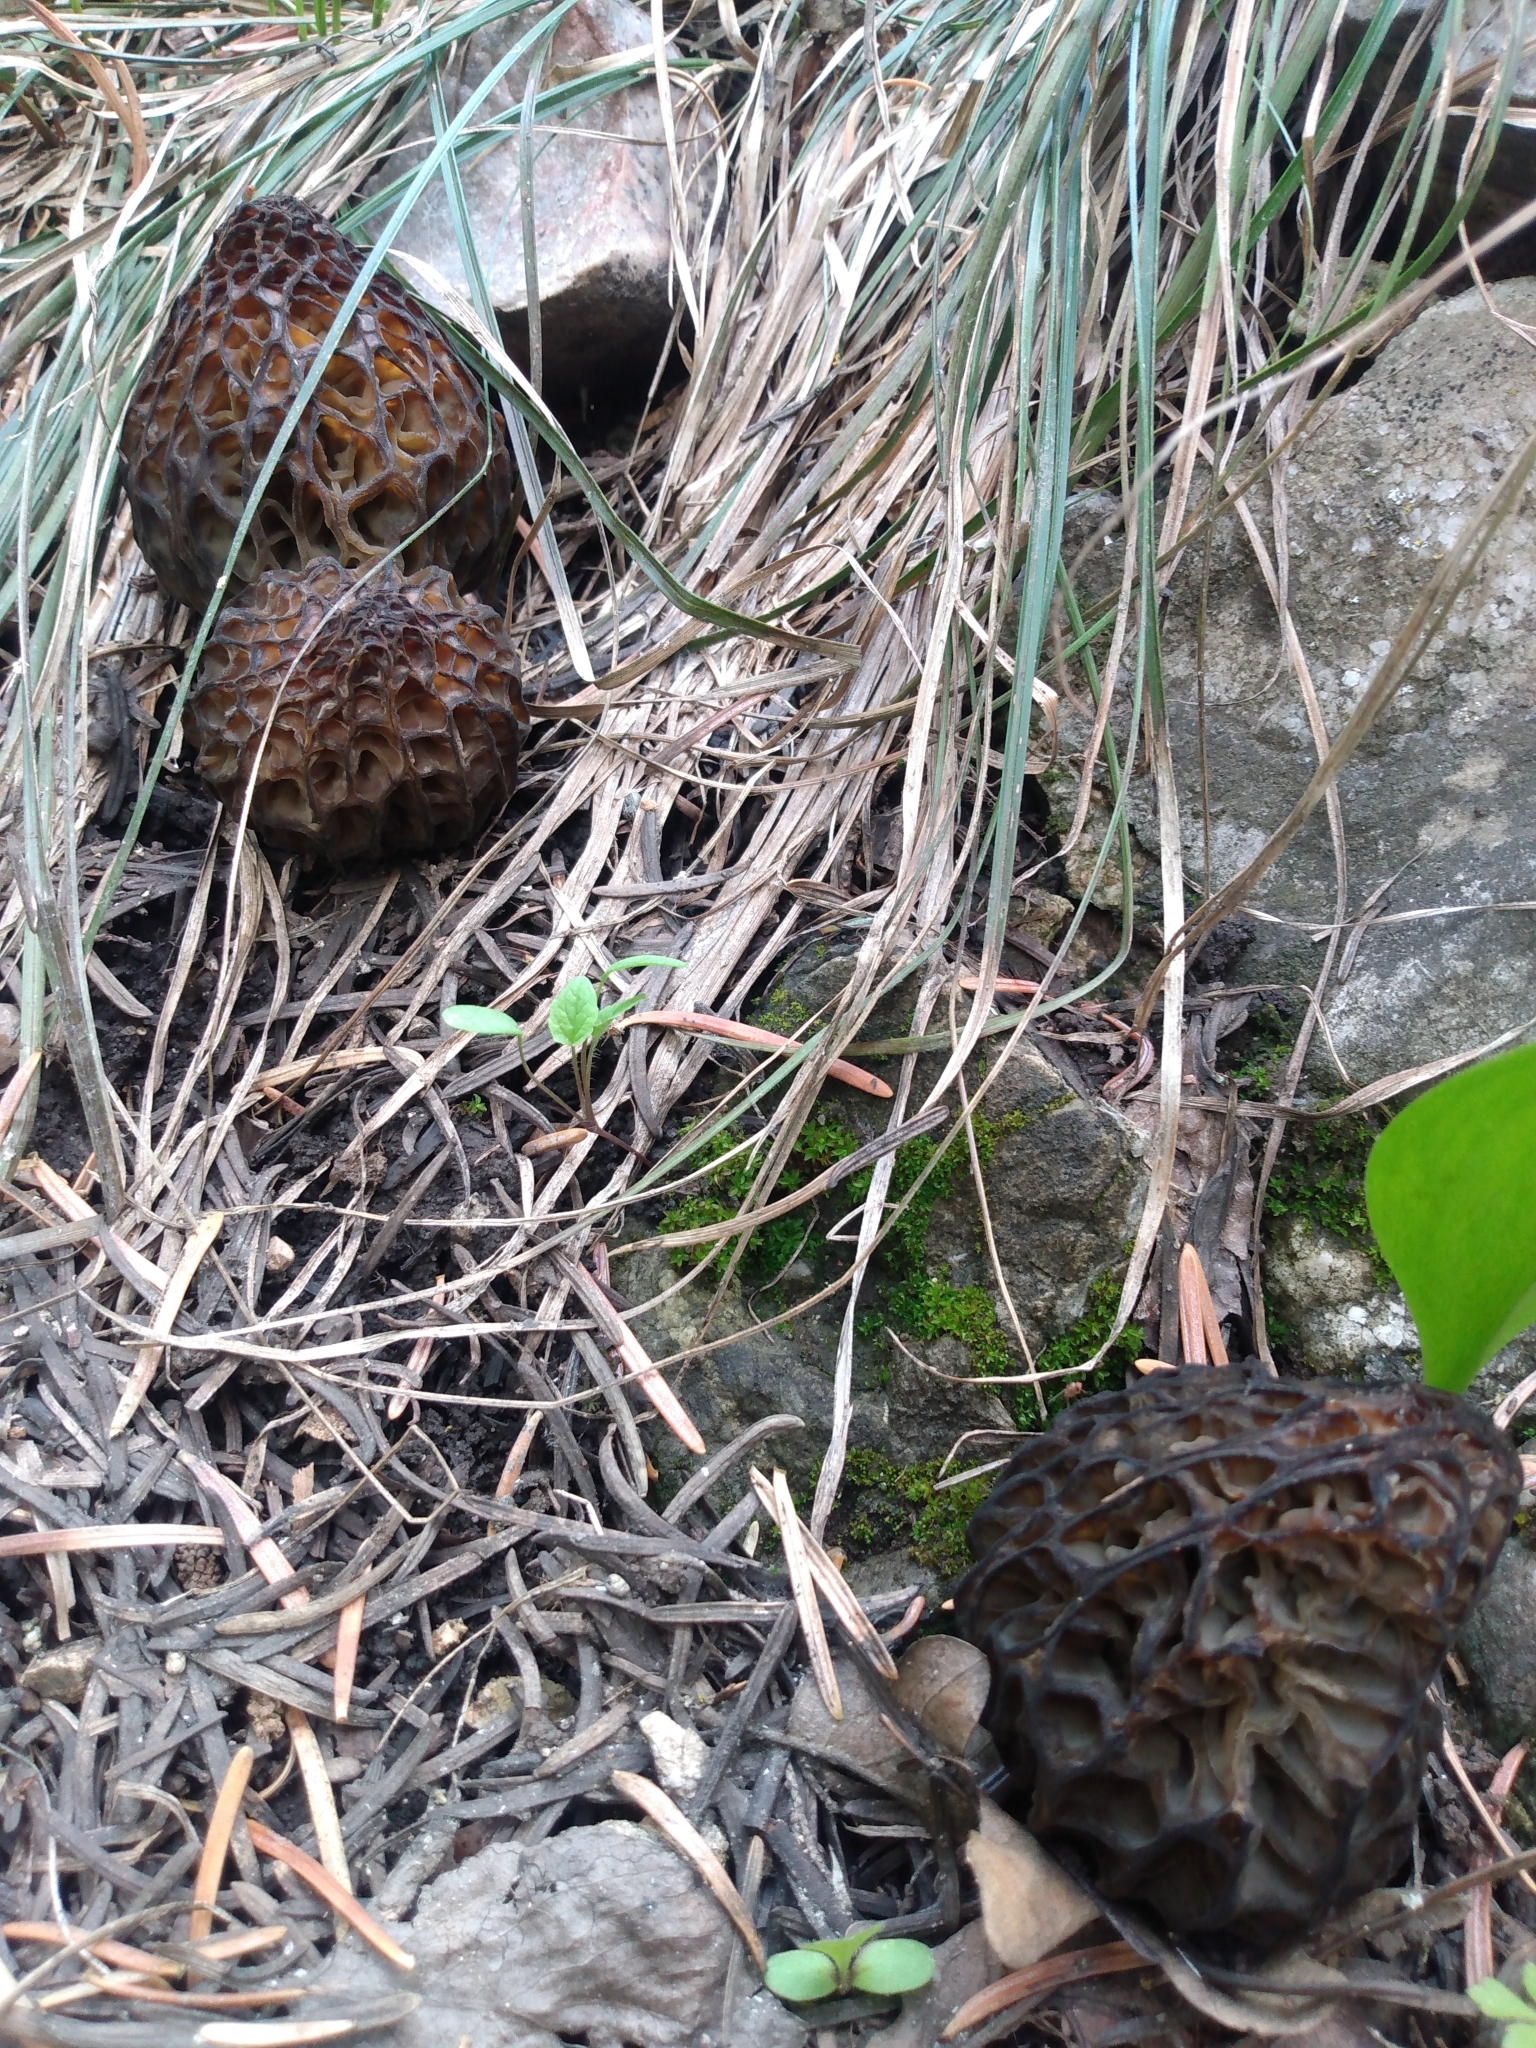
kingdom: Fungi
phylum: Ascomycota
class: Pezizomycetes
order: Pezizales
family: Morchellaceae
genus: Morchella
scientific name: Morchella snyderi
